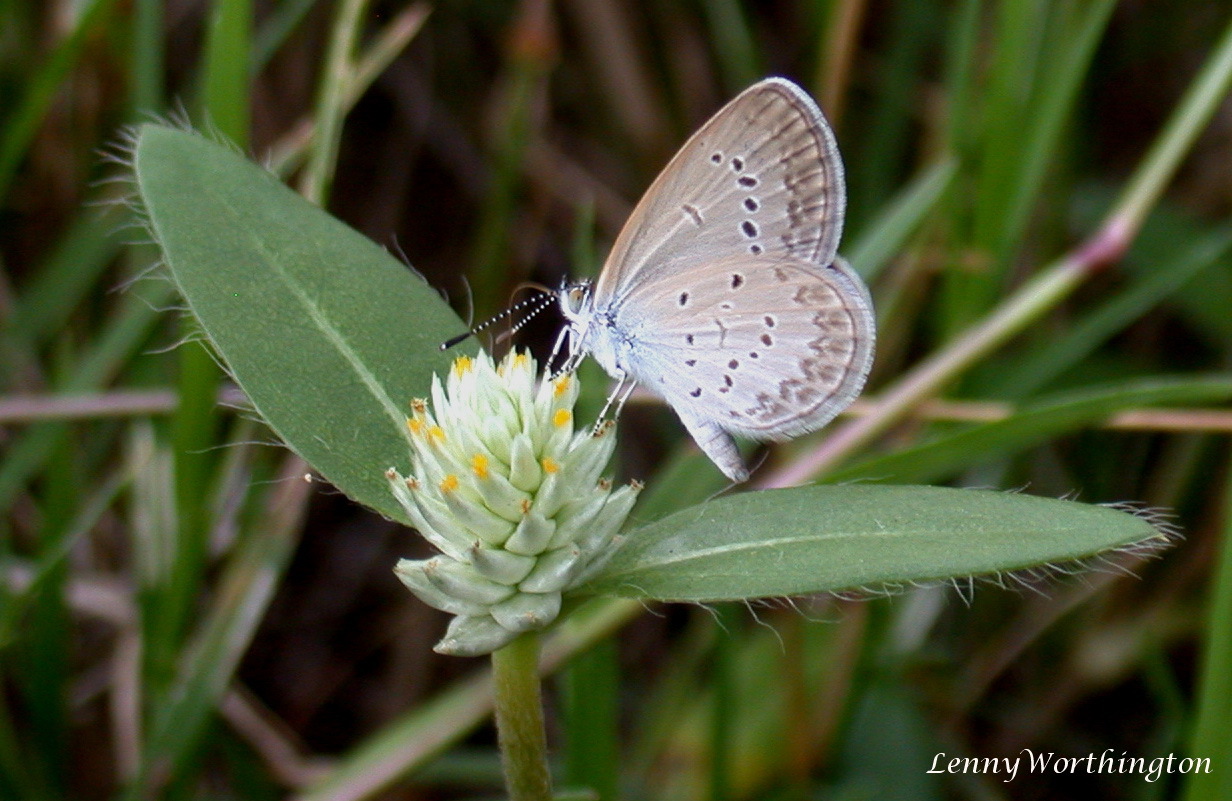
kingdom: Animalia
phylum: Arthropoda
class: Insecta
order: Lepidoptera
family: Lycaenidae
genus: Zizina
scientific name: Zizina otis
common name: Lesser grass blue
